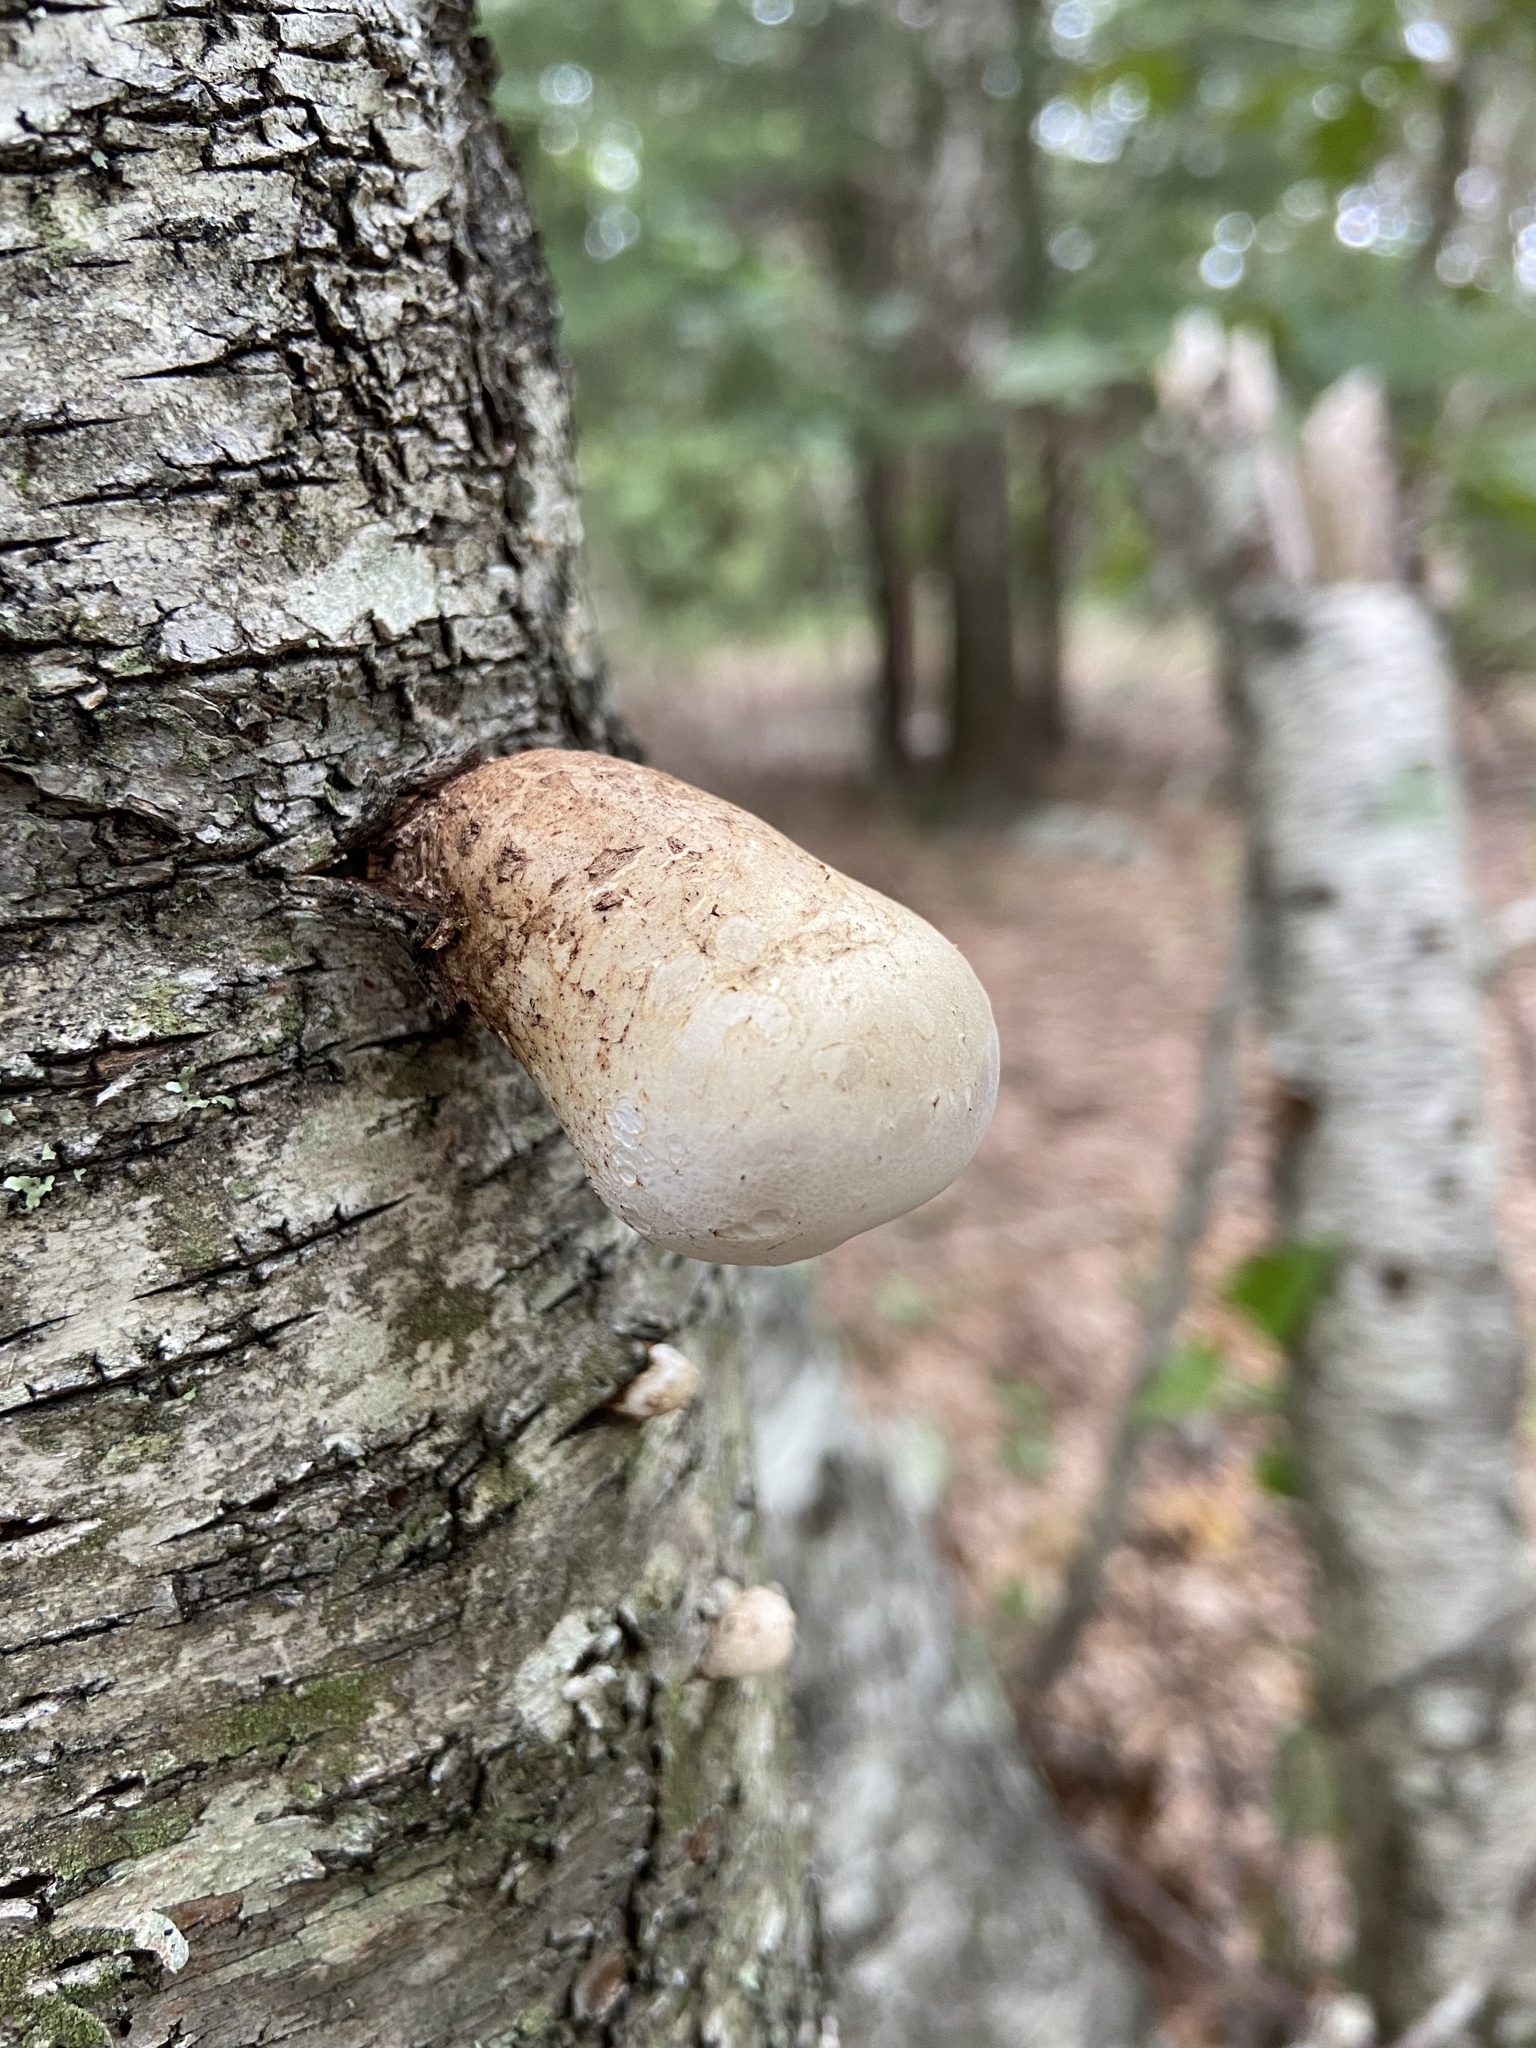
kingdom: Fungi
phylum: Basidiomycota
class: Agaricomycetes
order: Polyporales
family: Fomitopsidaceae
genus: Fomitopsis
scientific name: Fomitopsis betulina
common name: Birch polypore
